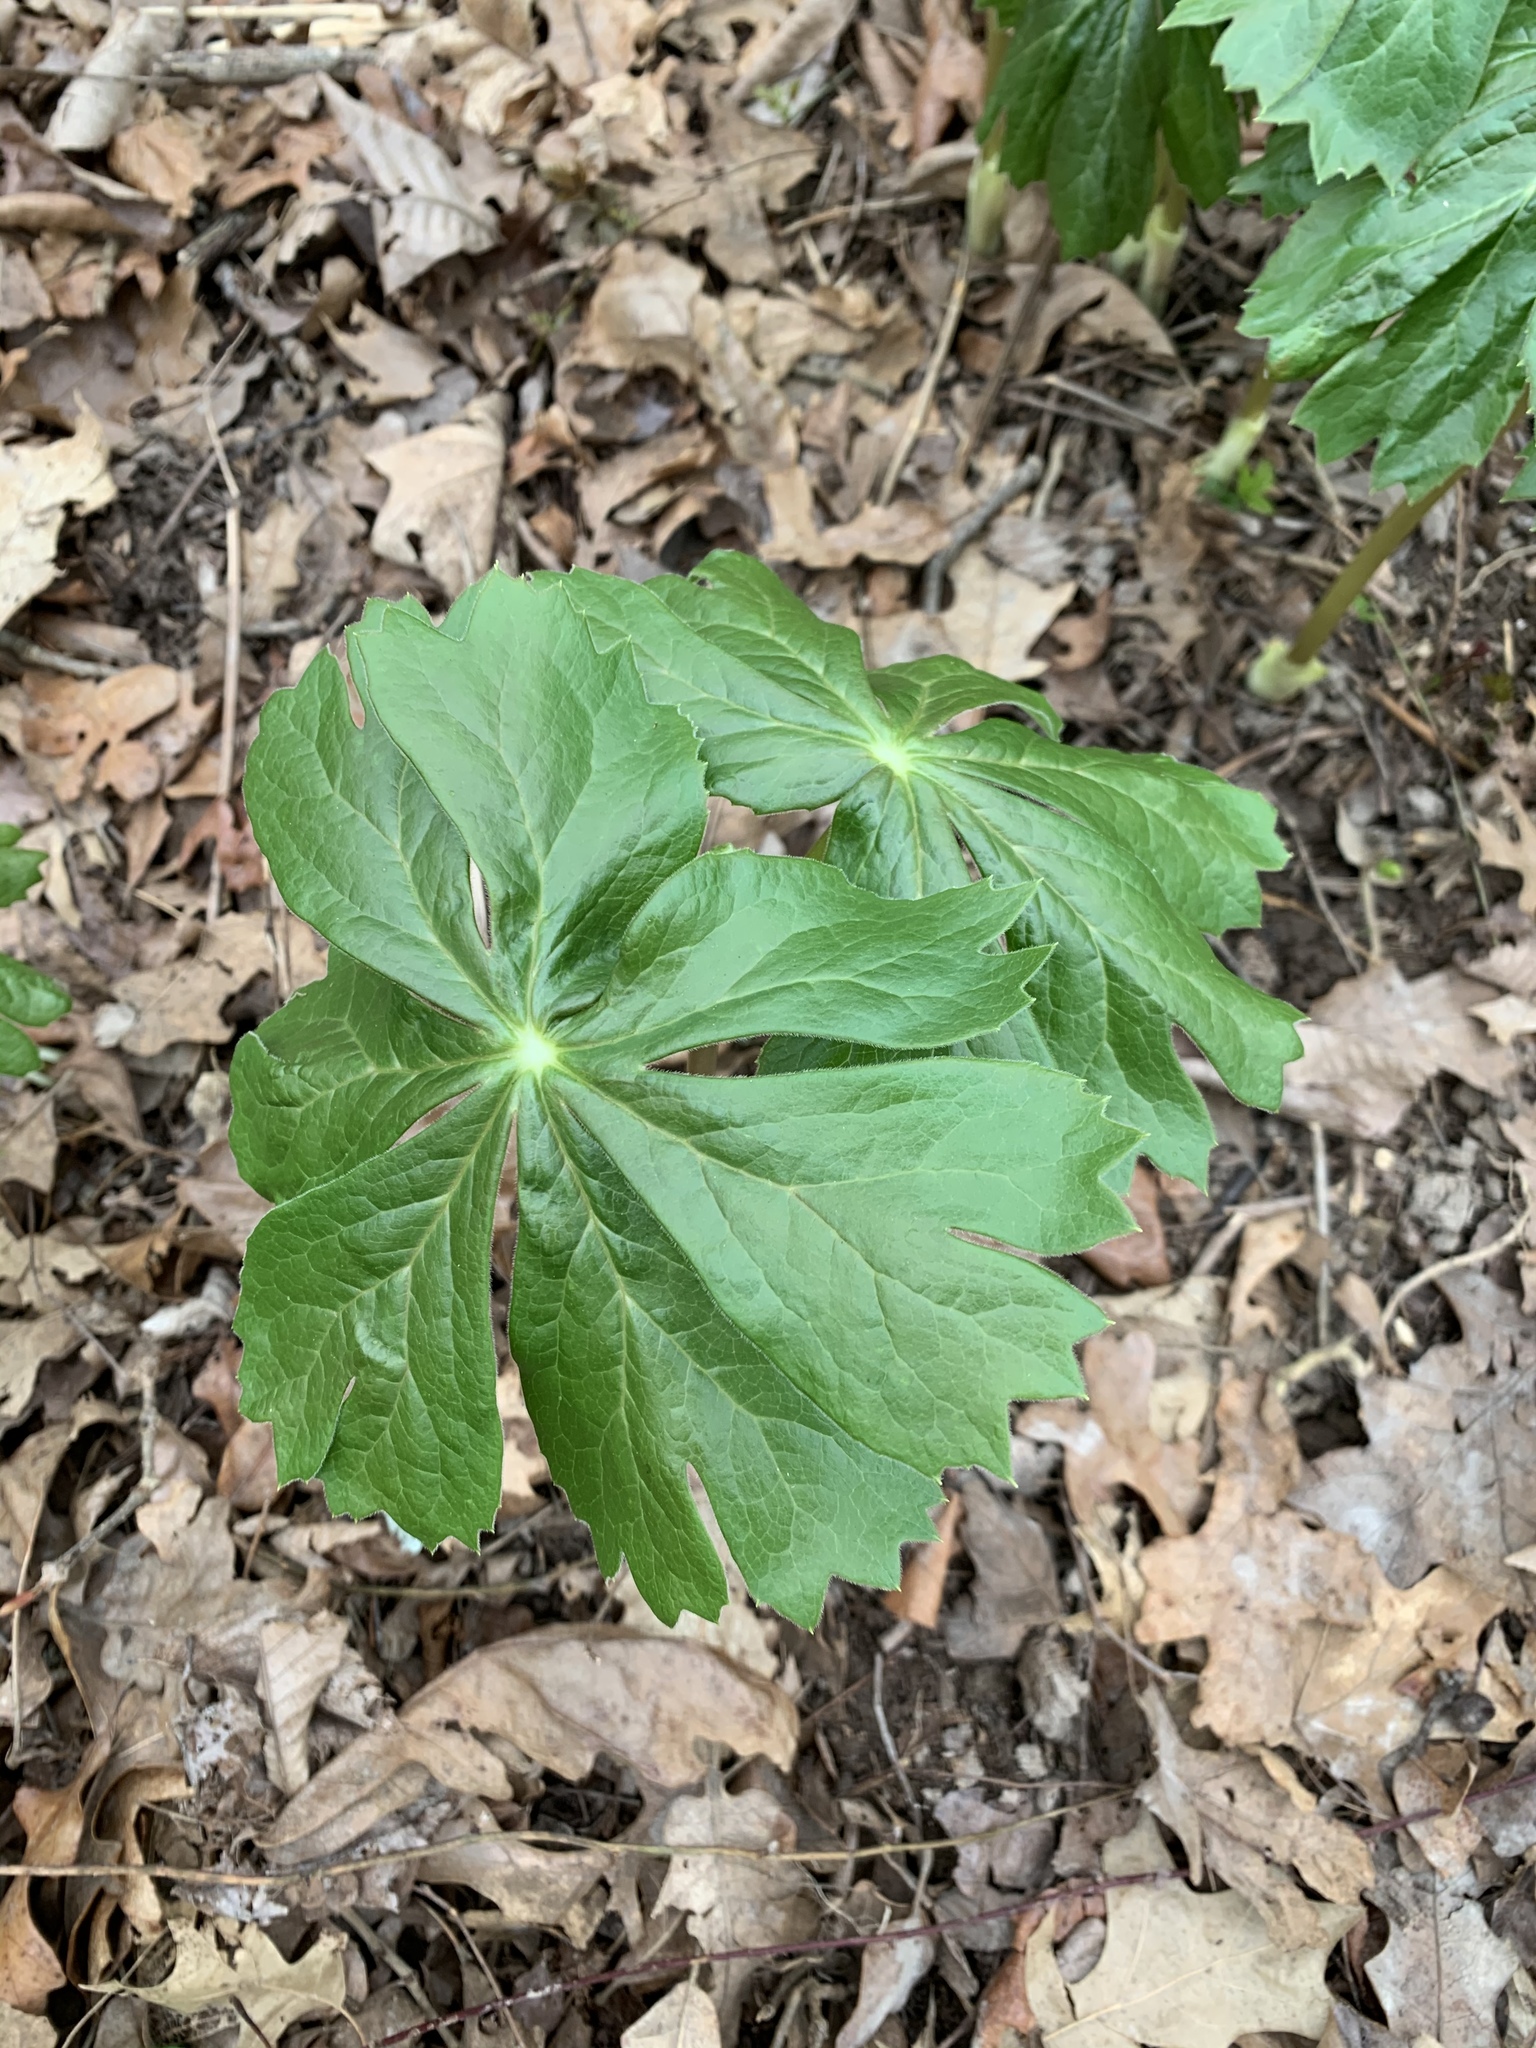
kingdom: Plantae
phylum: Tracheophyta
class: Magnoliopsida
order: Ranunculales
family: Berberidaceae
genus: Podophyllum
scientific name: Podophyllum peltatum
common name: Wild mandrake
